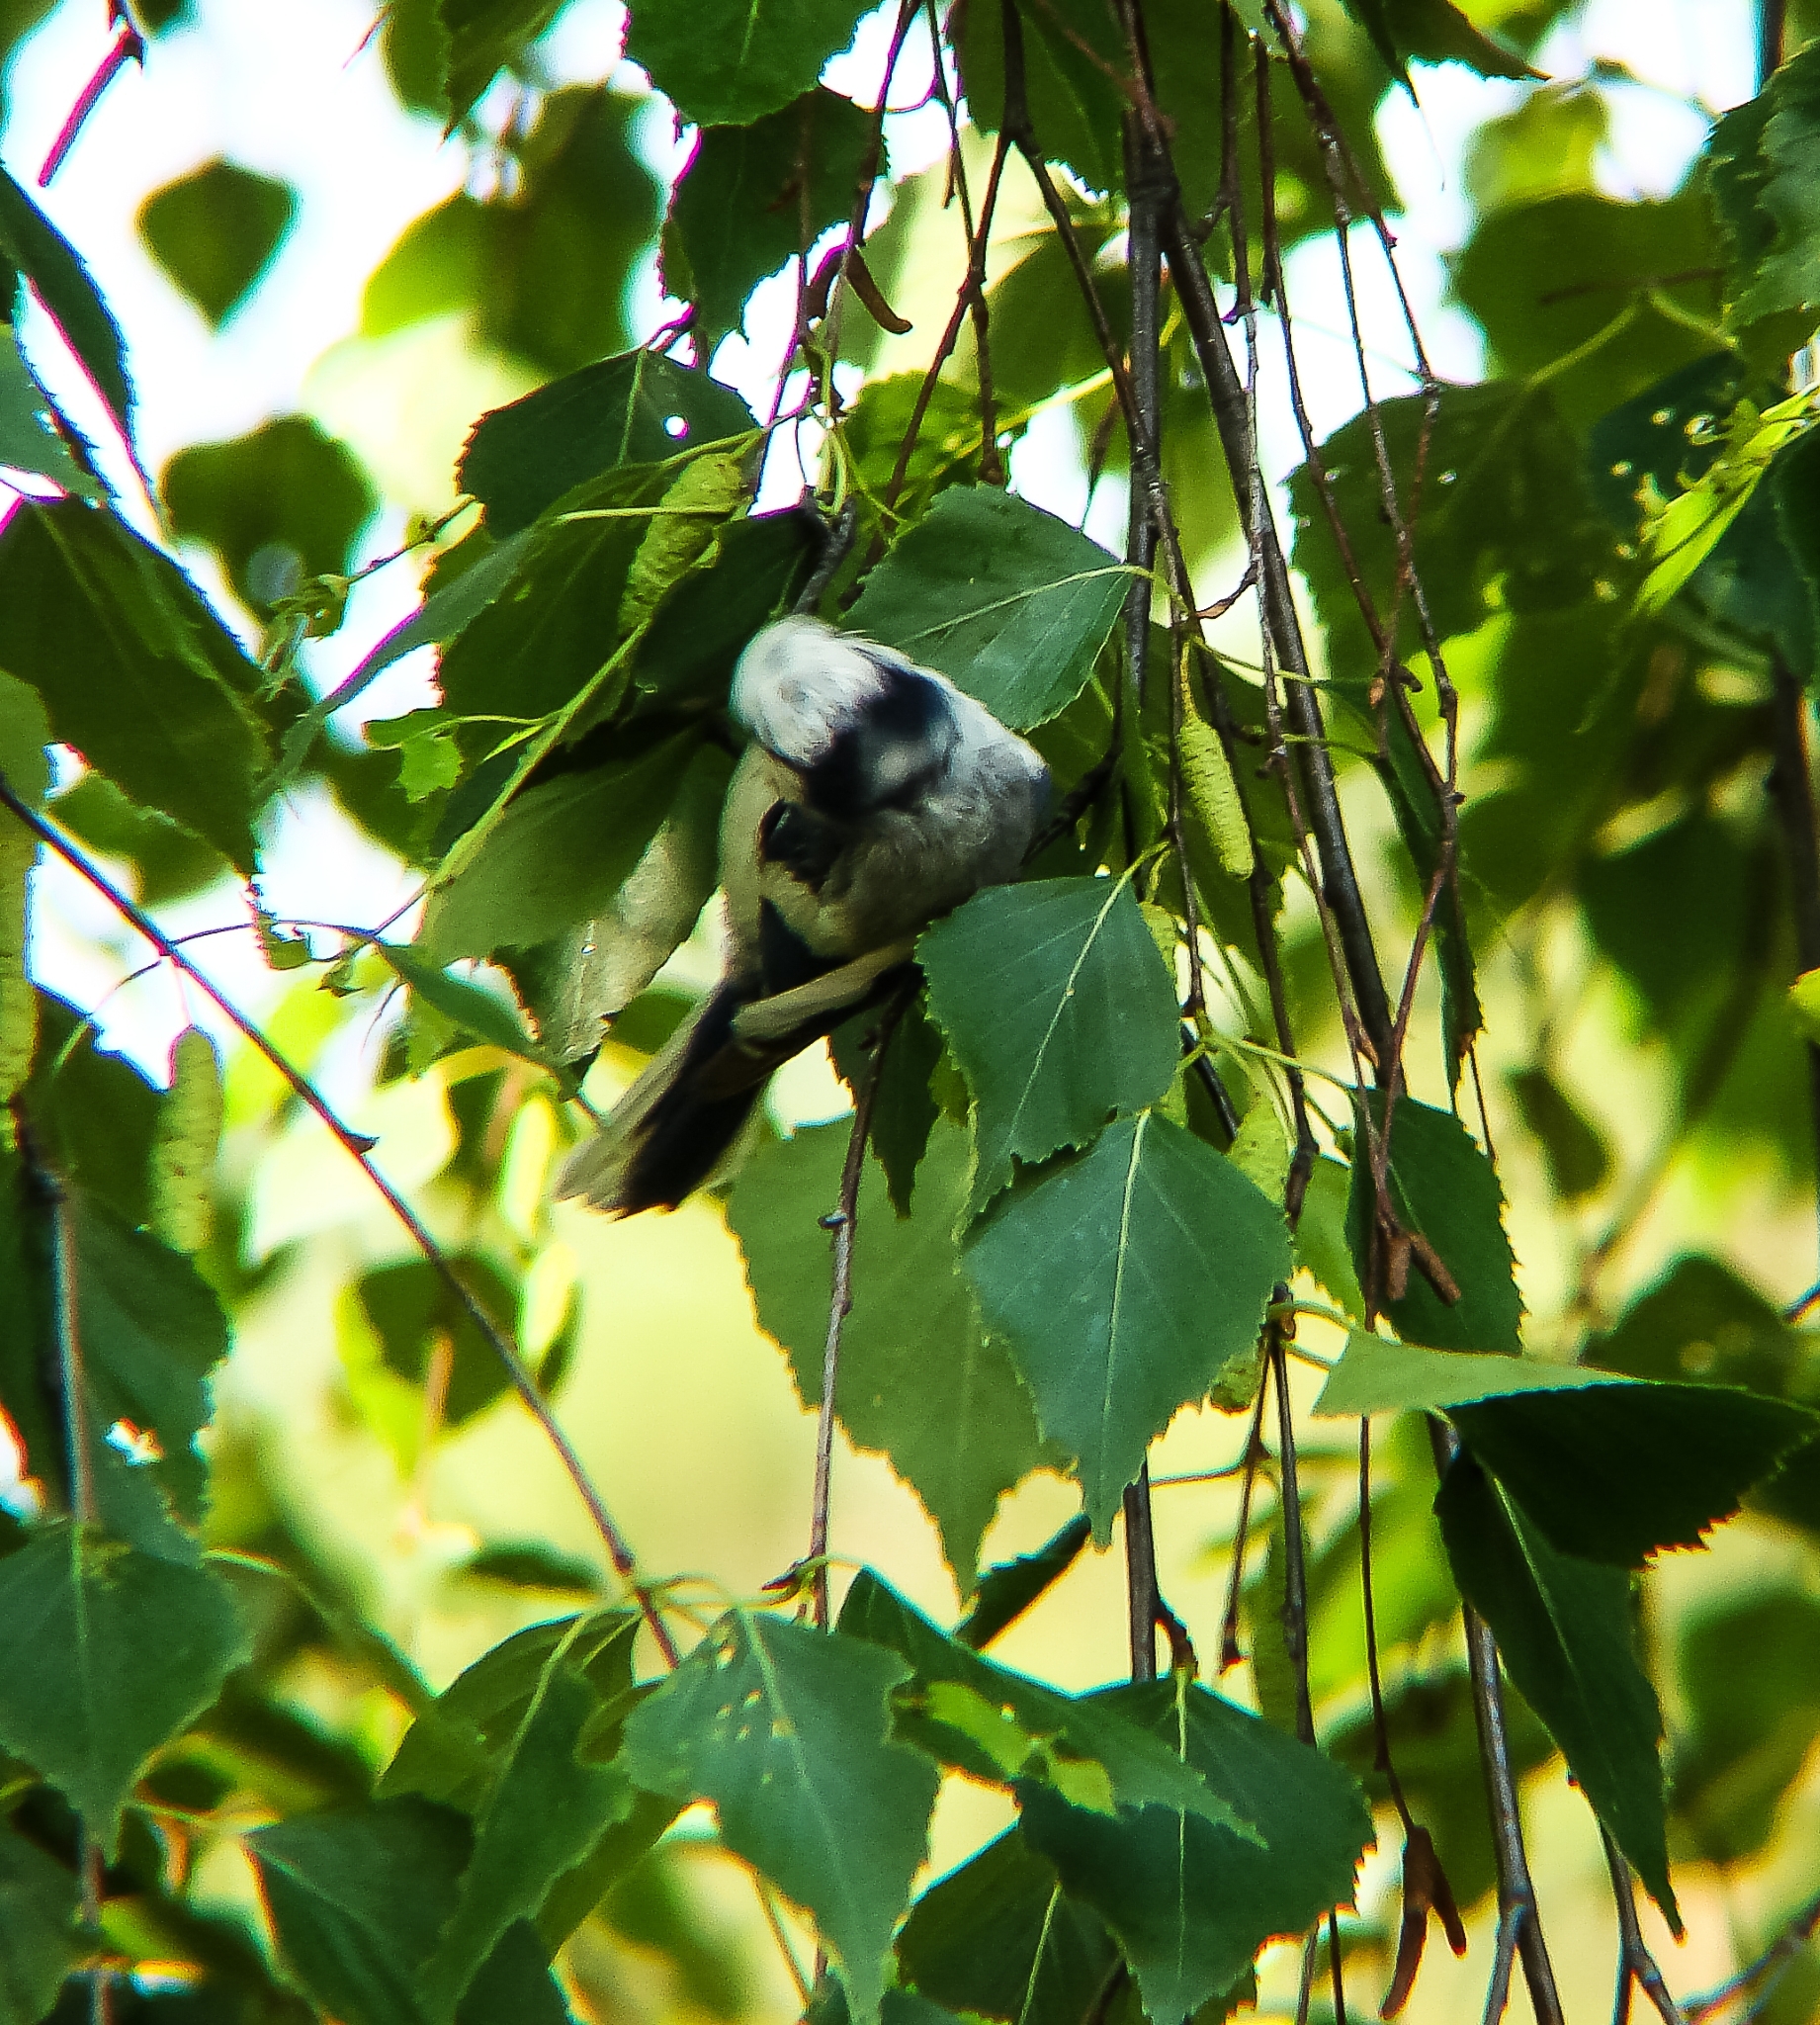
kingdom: Animalia
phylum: Chordata
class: Aves
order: Passeriformes
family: Paridae
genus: Cyanistes
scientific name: Cyanistes cyanus
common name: Azure tit
